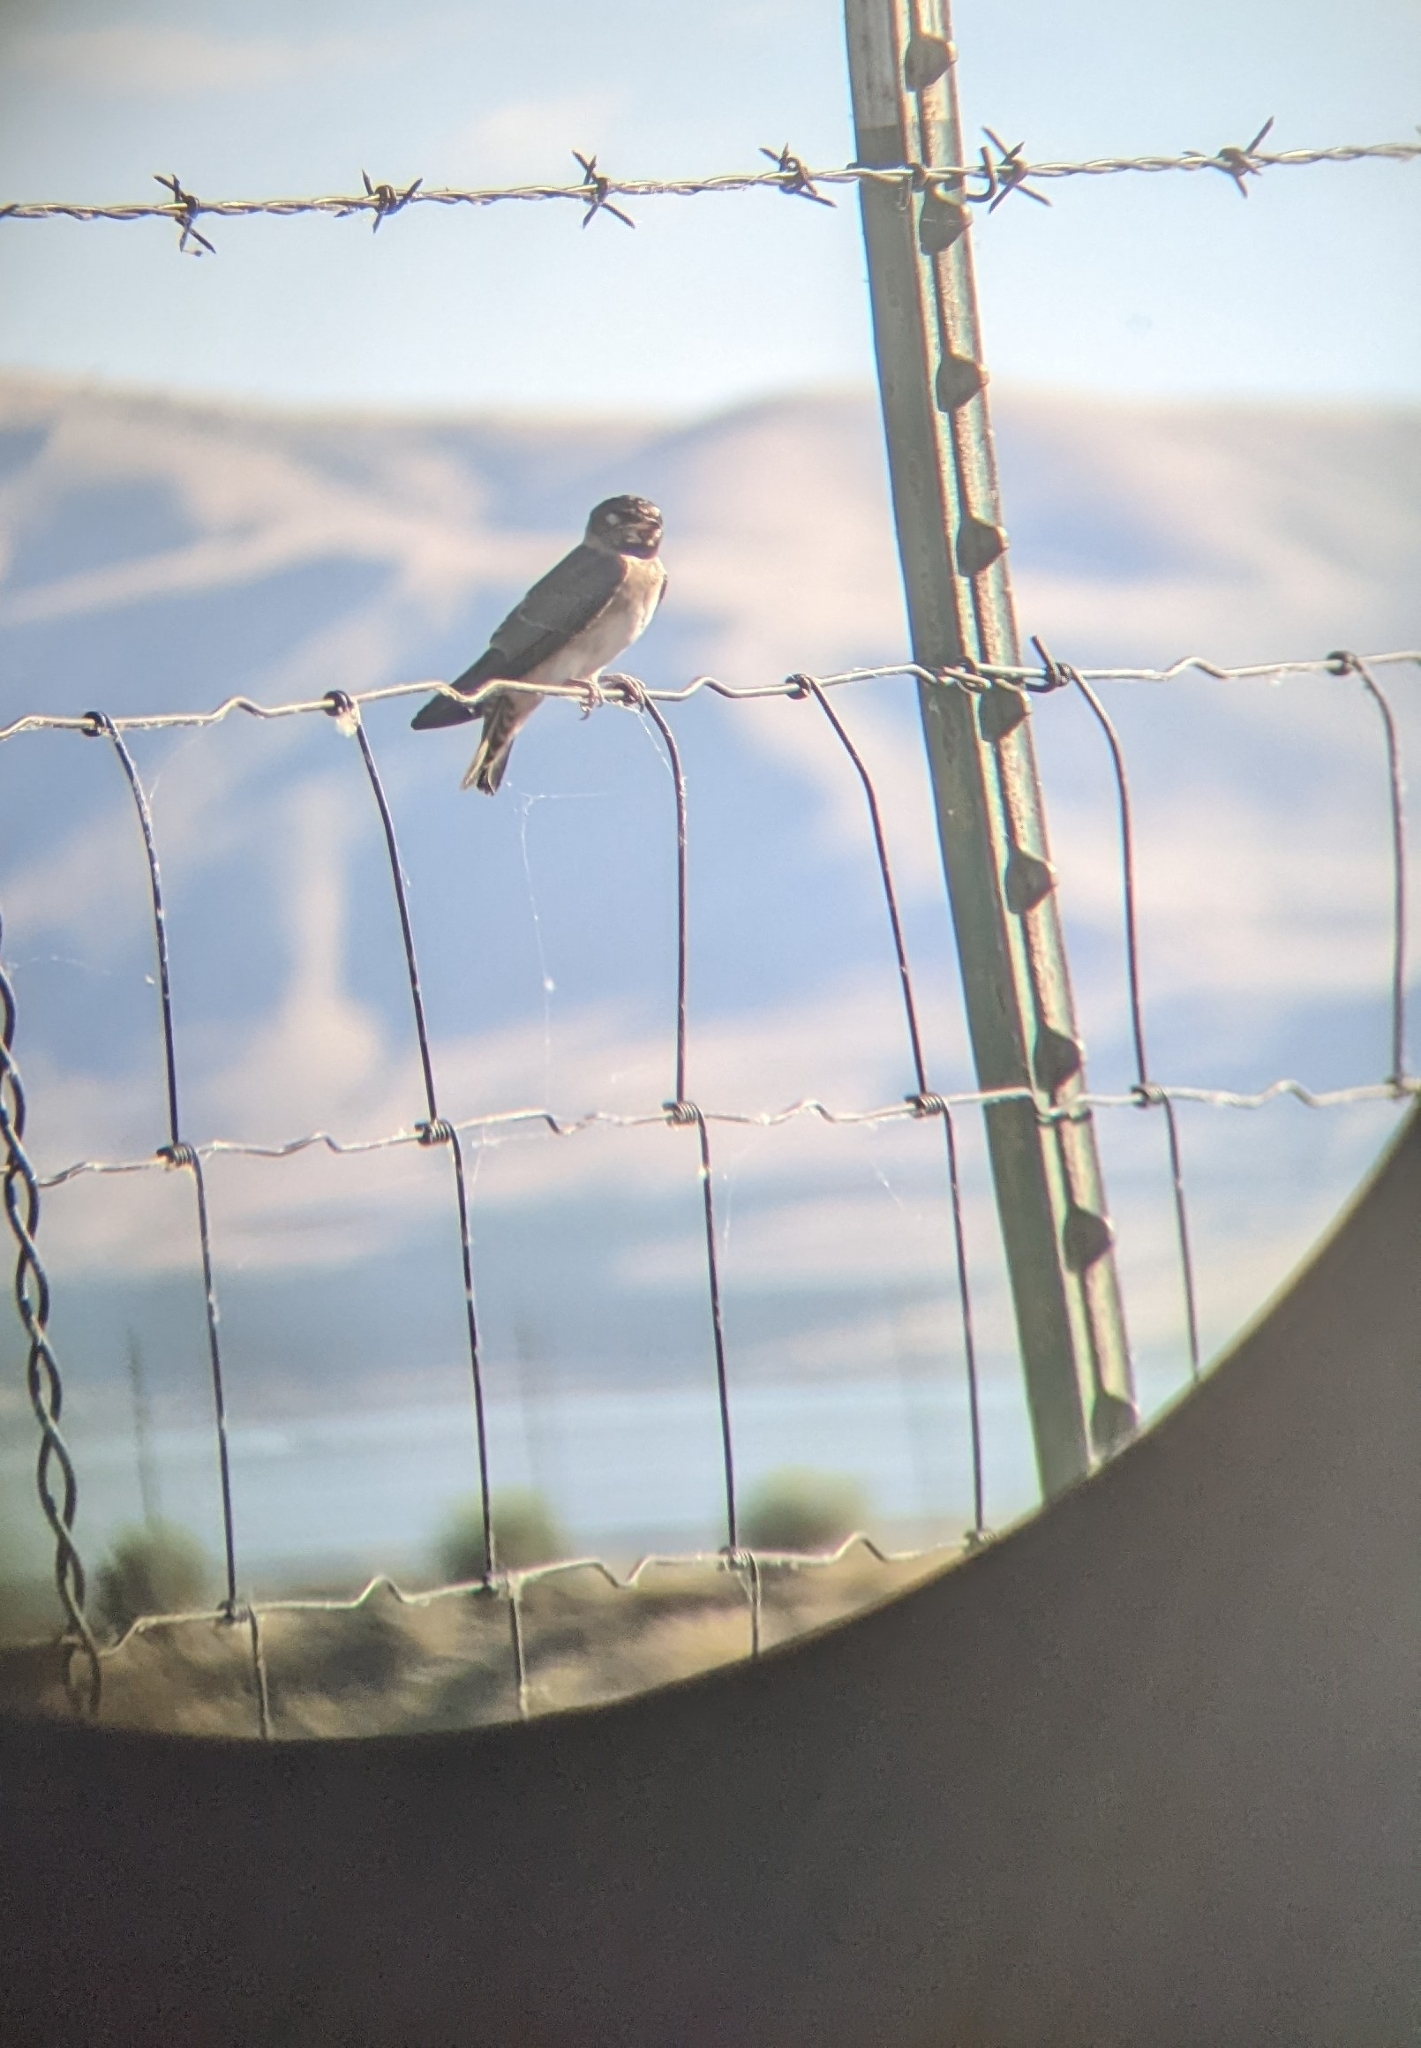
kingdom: Animalia
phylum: Chordata
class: Aves
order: Passeriformes
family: Hirundinidae
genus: Petrochelidon
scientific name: Petrochelidon pyrrhonota
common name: American cliff swallow
